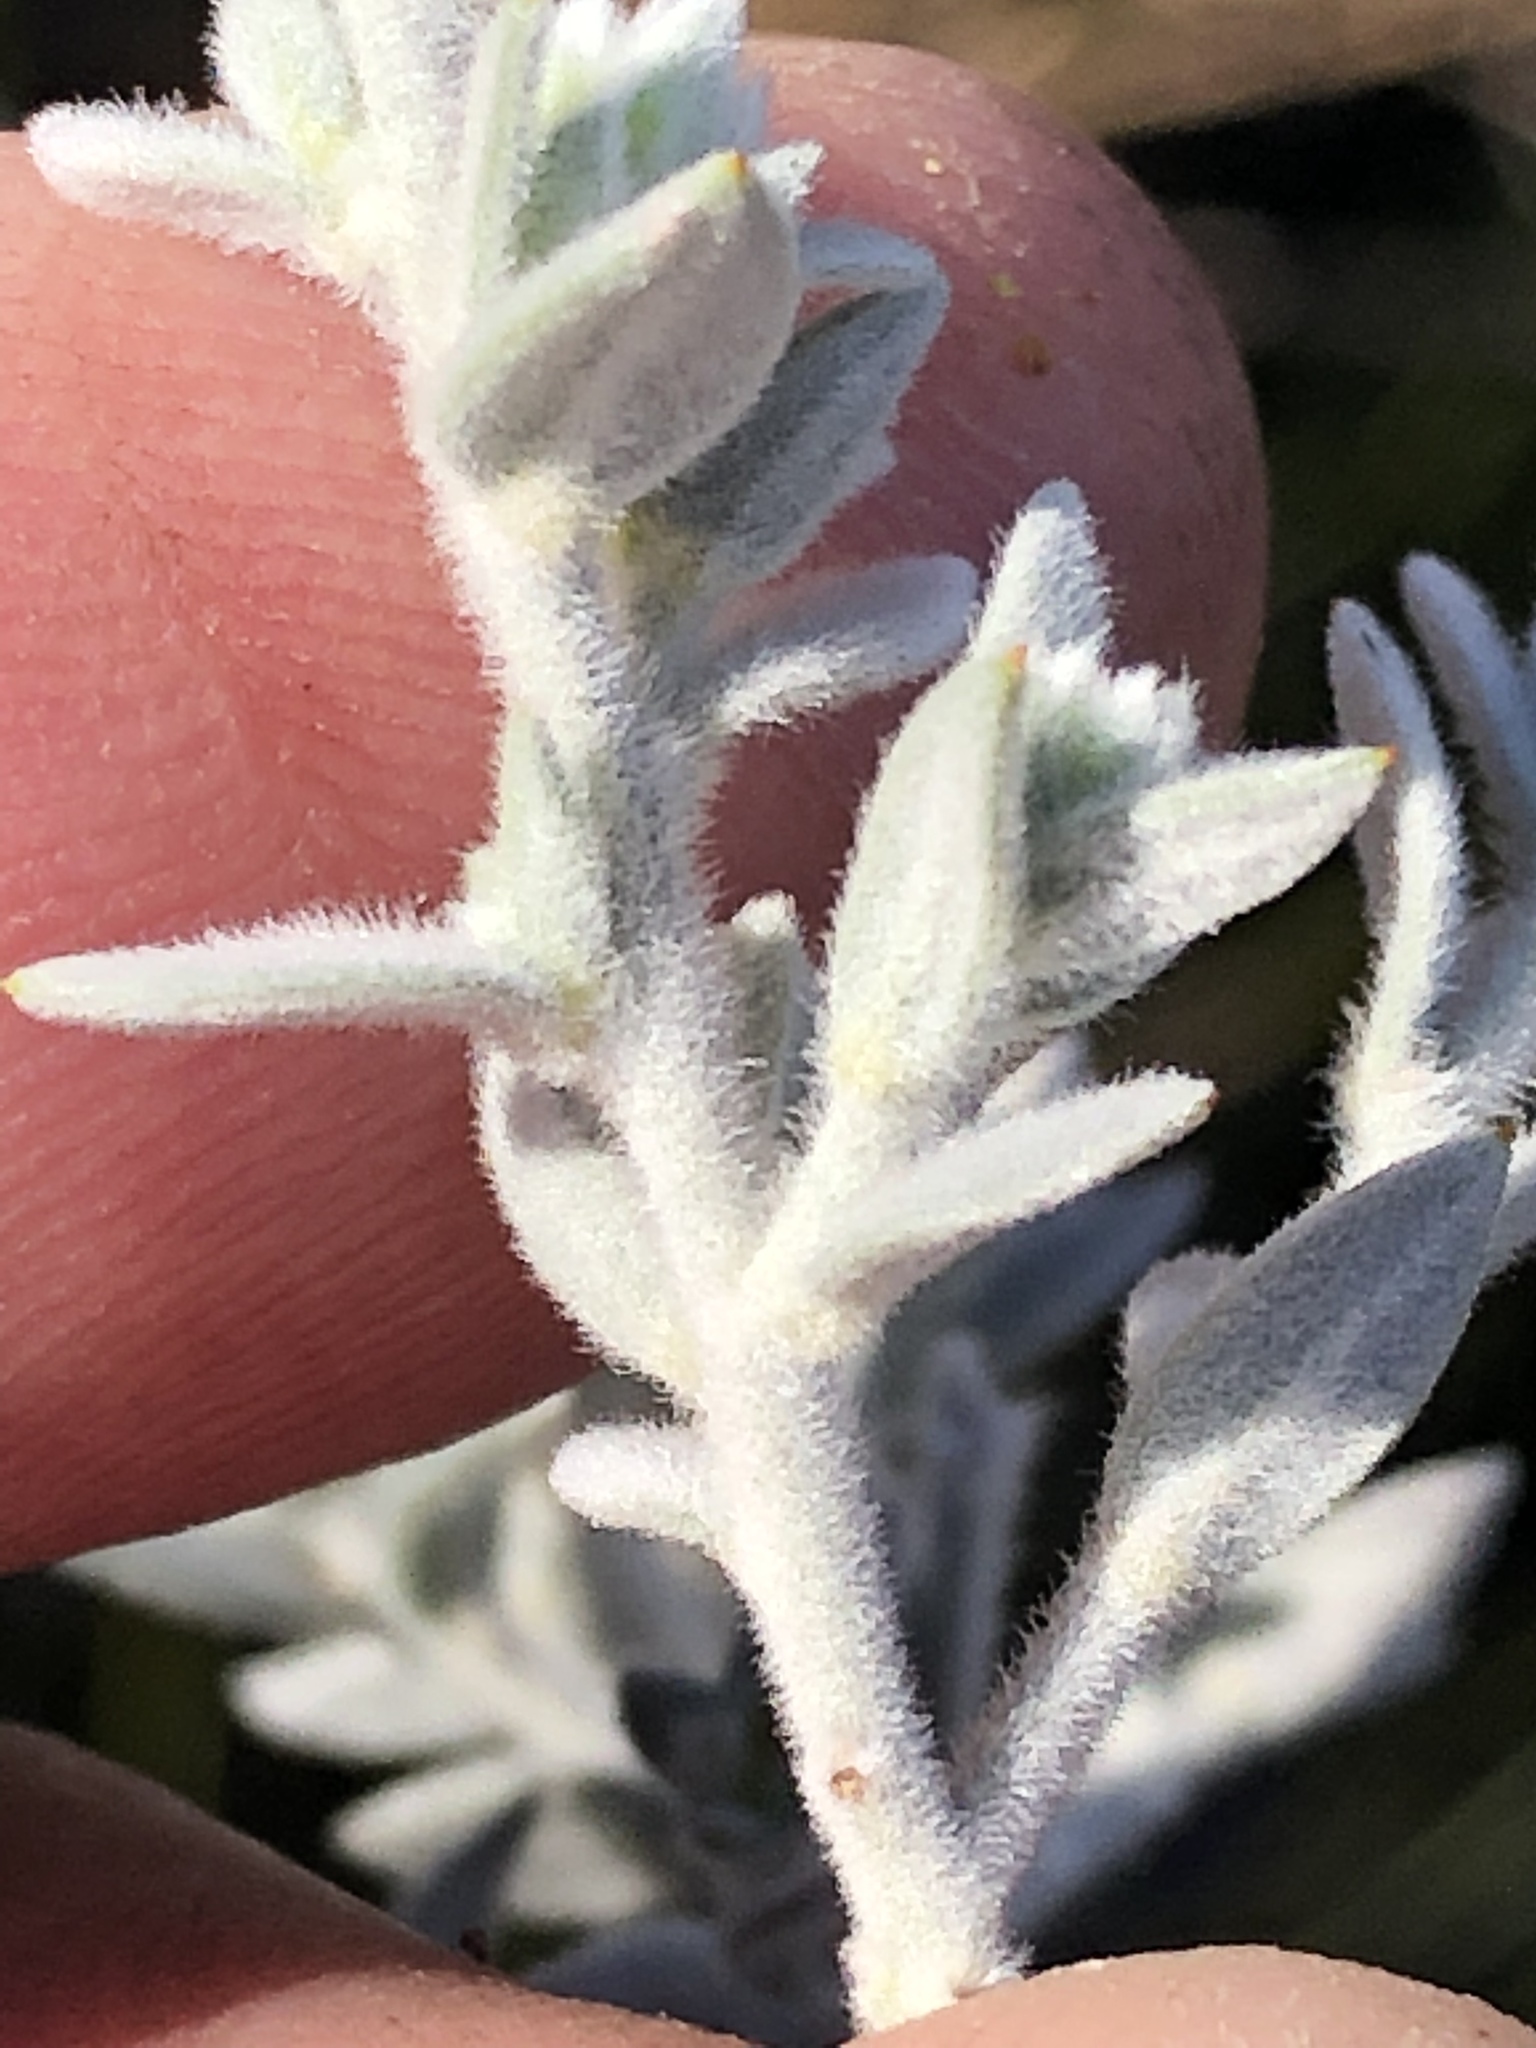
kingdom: Plantae
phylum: Tracheophyta
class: Magnoliopsida
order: Fabales
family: Fabaceae
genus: Amphithalea
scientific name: Amphithalea phylicoides
